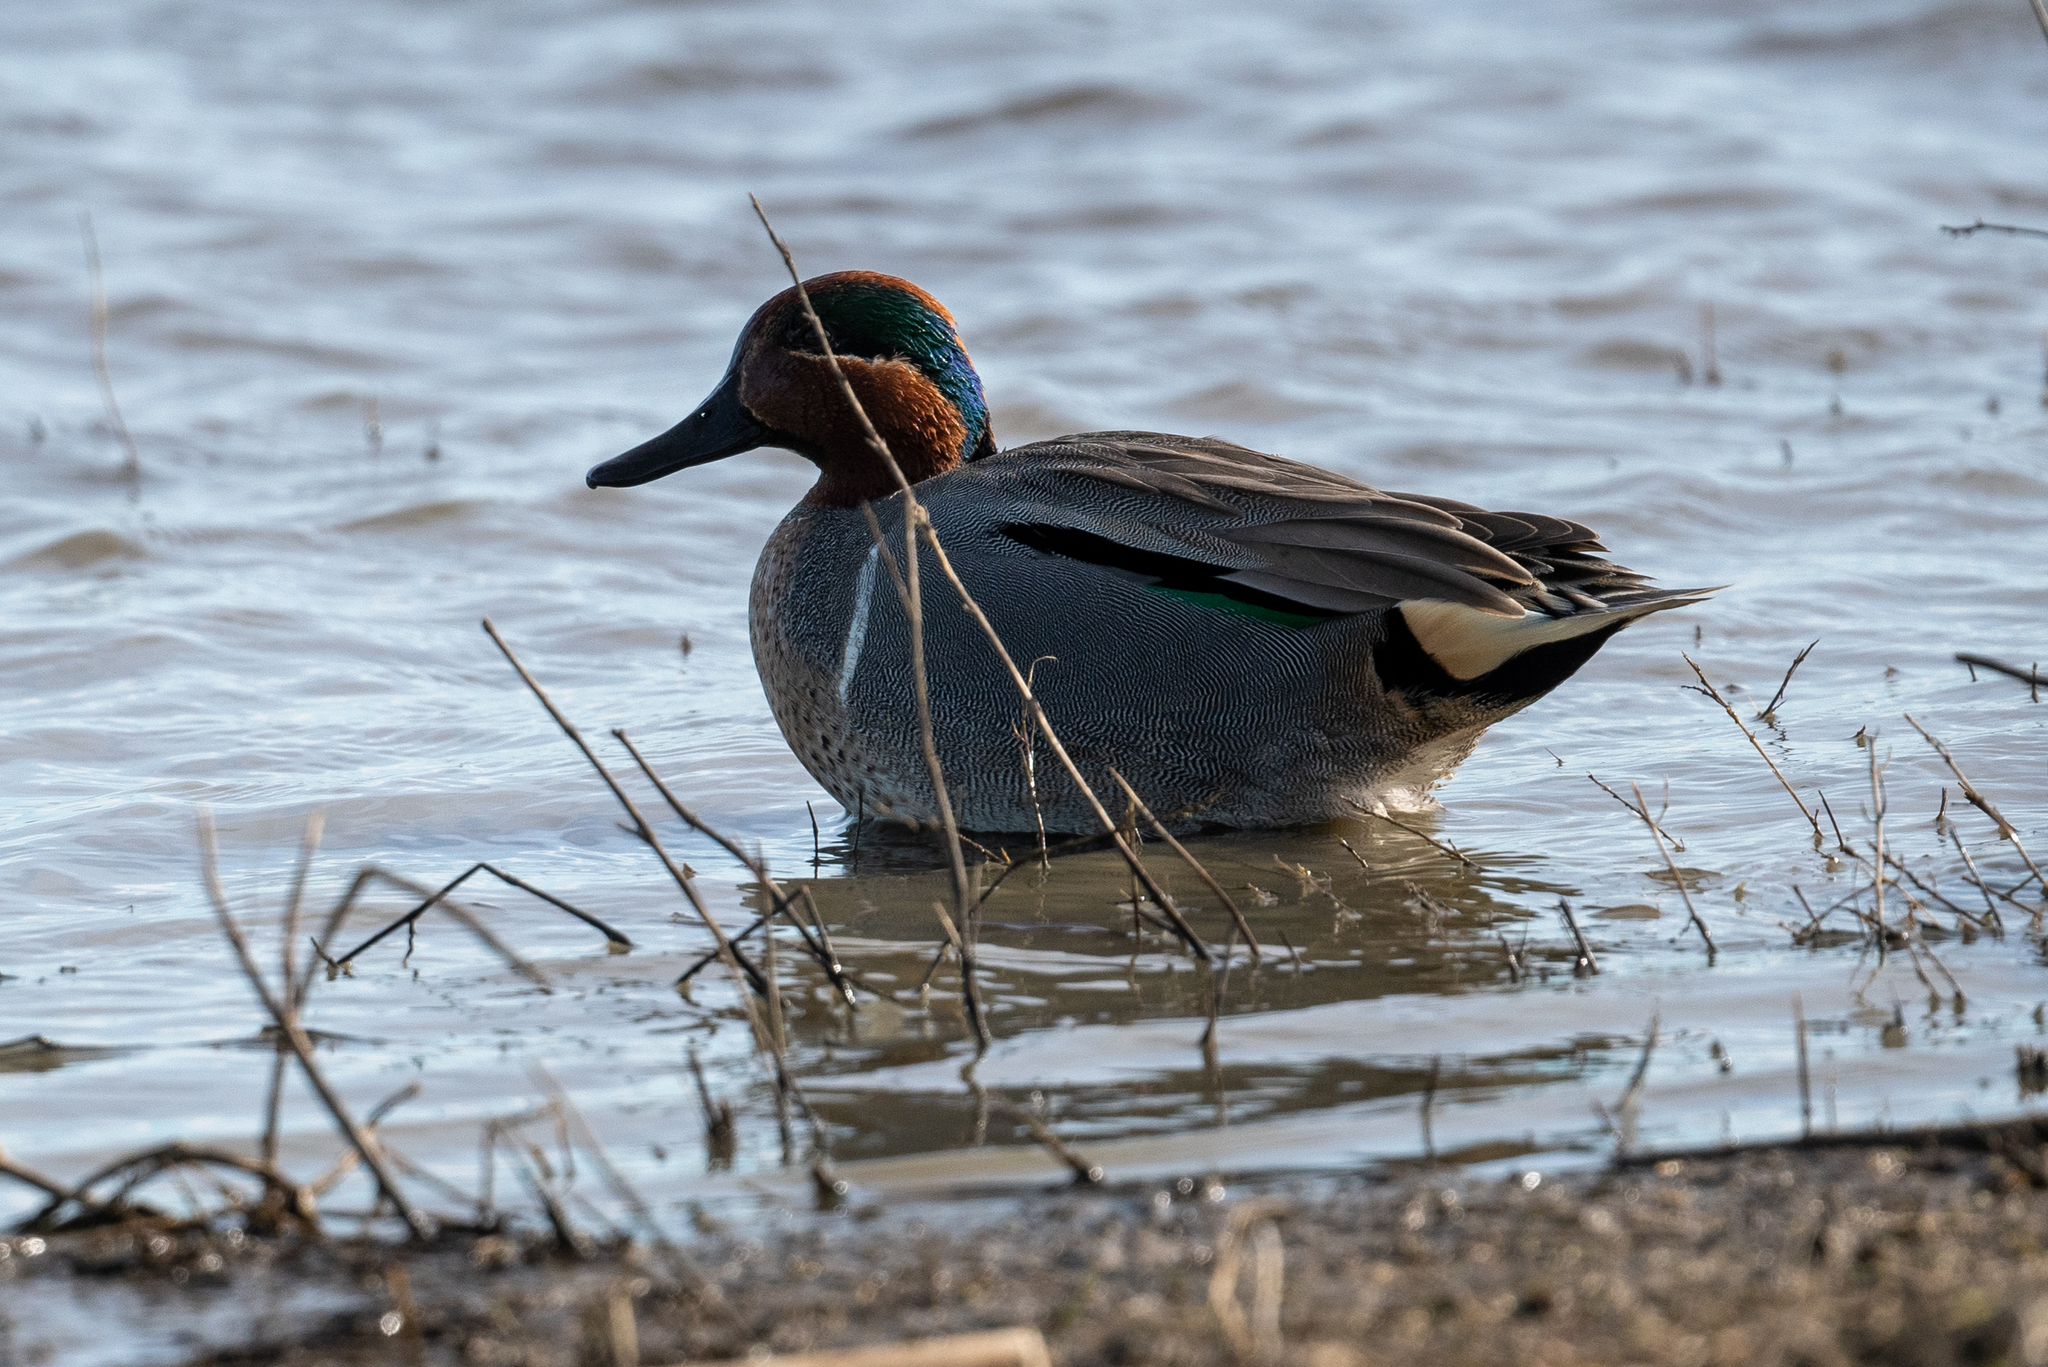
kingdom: Animalia
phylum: Chordata
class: Aves
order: Anseriformes
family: Anatidae
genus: Anas
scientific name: Anas crecca
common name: Eurasian teal
